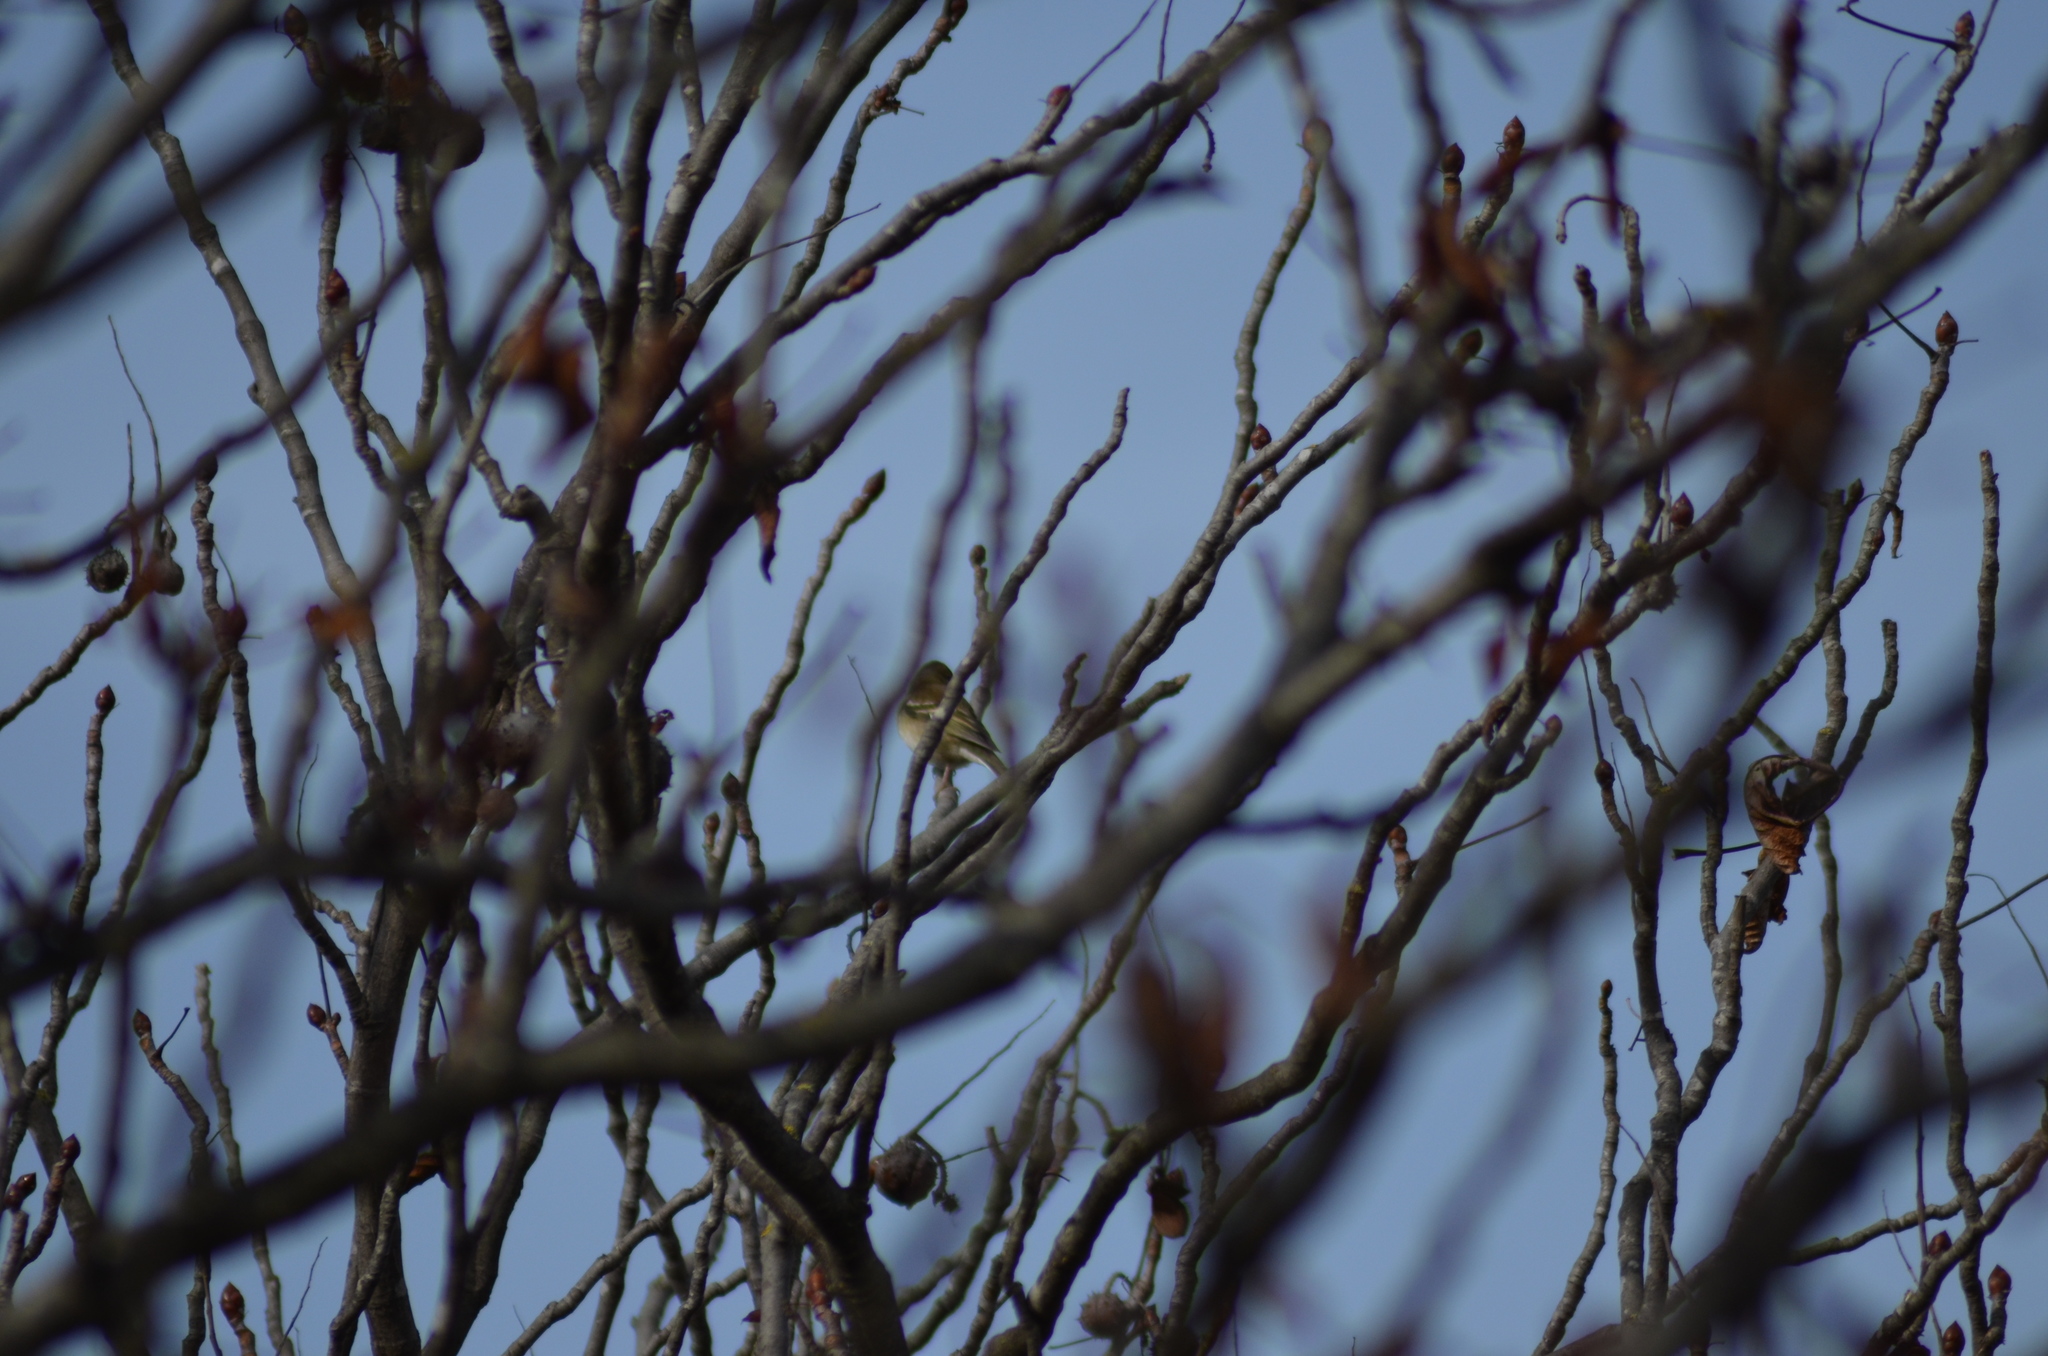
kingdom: Animalia
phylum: Chordata
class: Aves
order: Passeriformes
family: Fringillidae
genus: Fringilla
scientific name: Fringilla coelebs
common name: Common chaffinch
